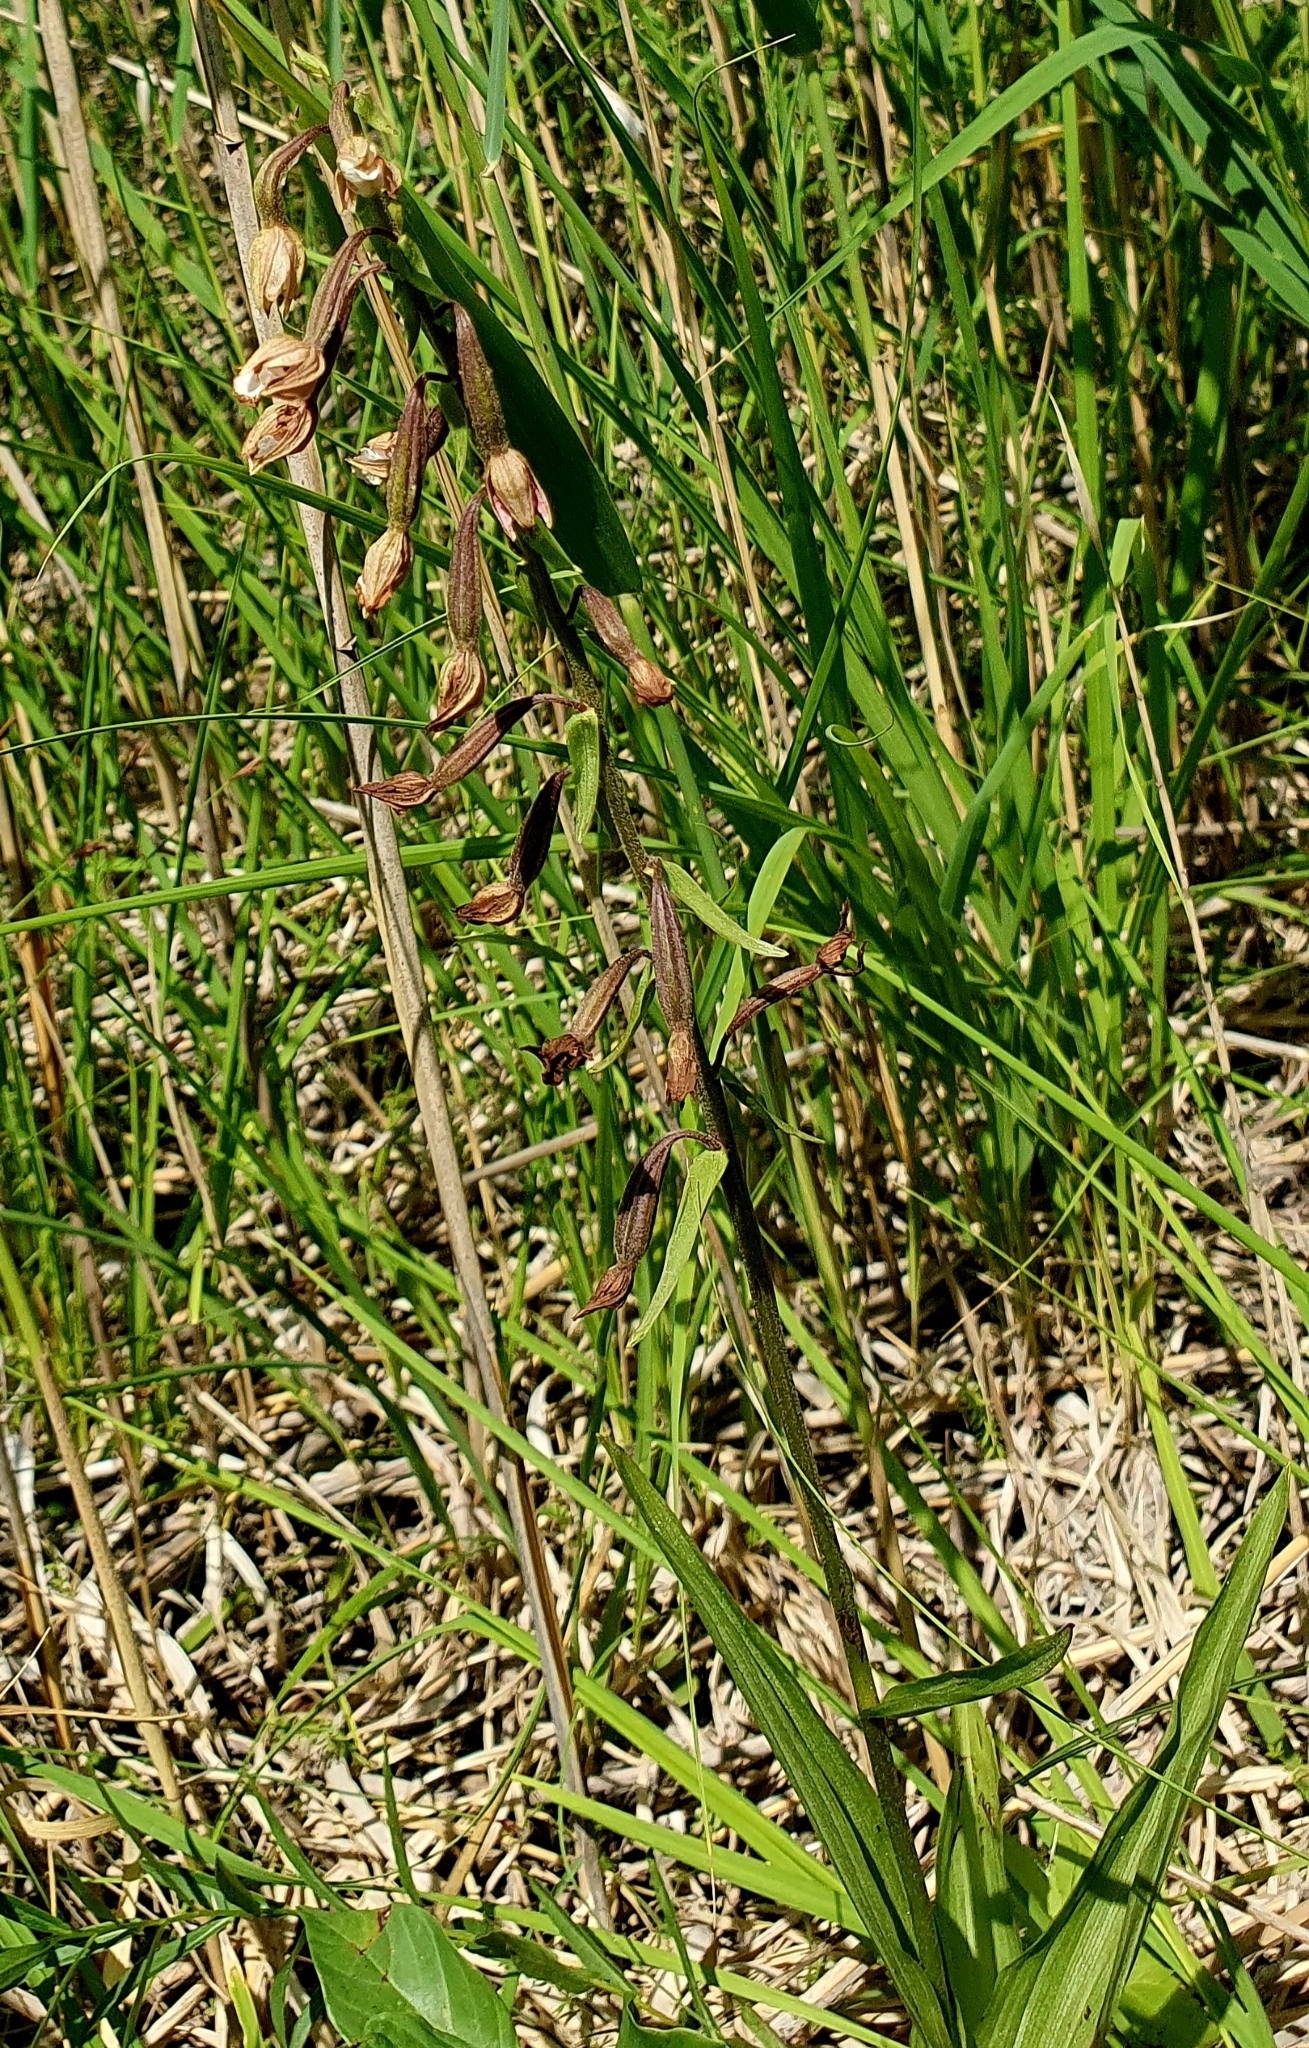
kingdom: Plantae
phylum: Tracheophyta
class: Liliopsida
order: Asparagales
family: Orchidaceae
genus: Epipactis
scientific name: Epipactis palustris
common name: Marsh helleborine
